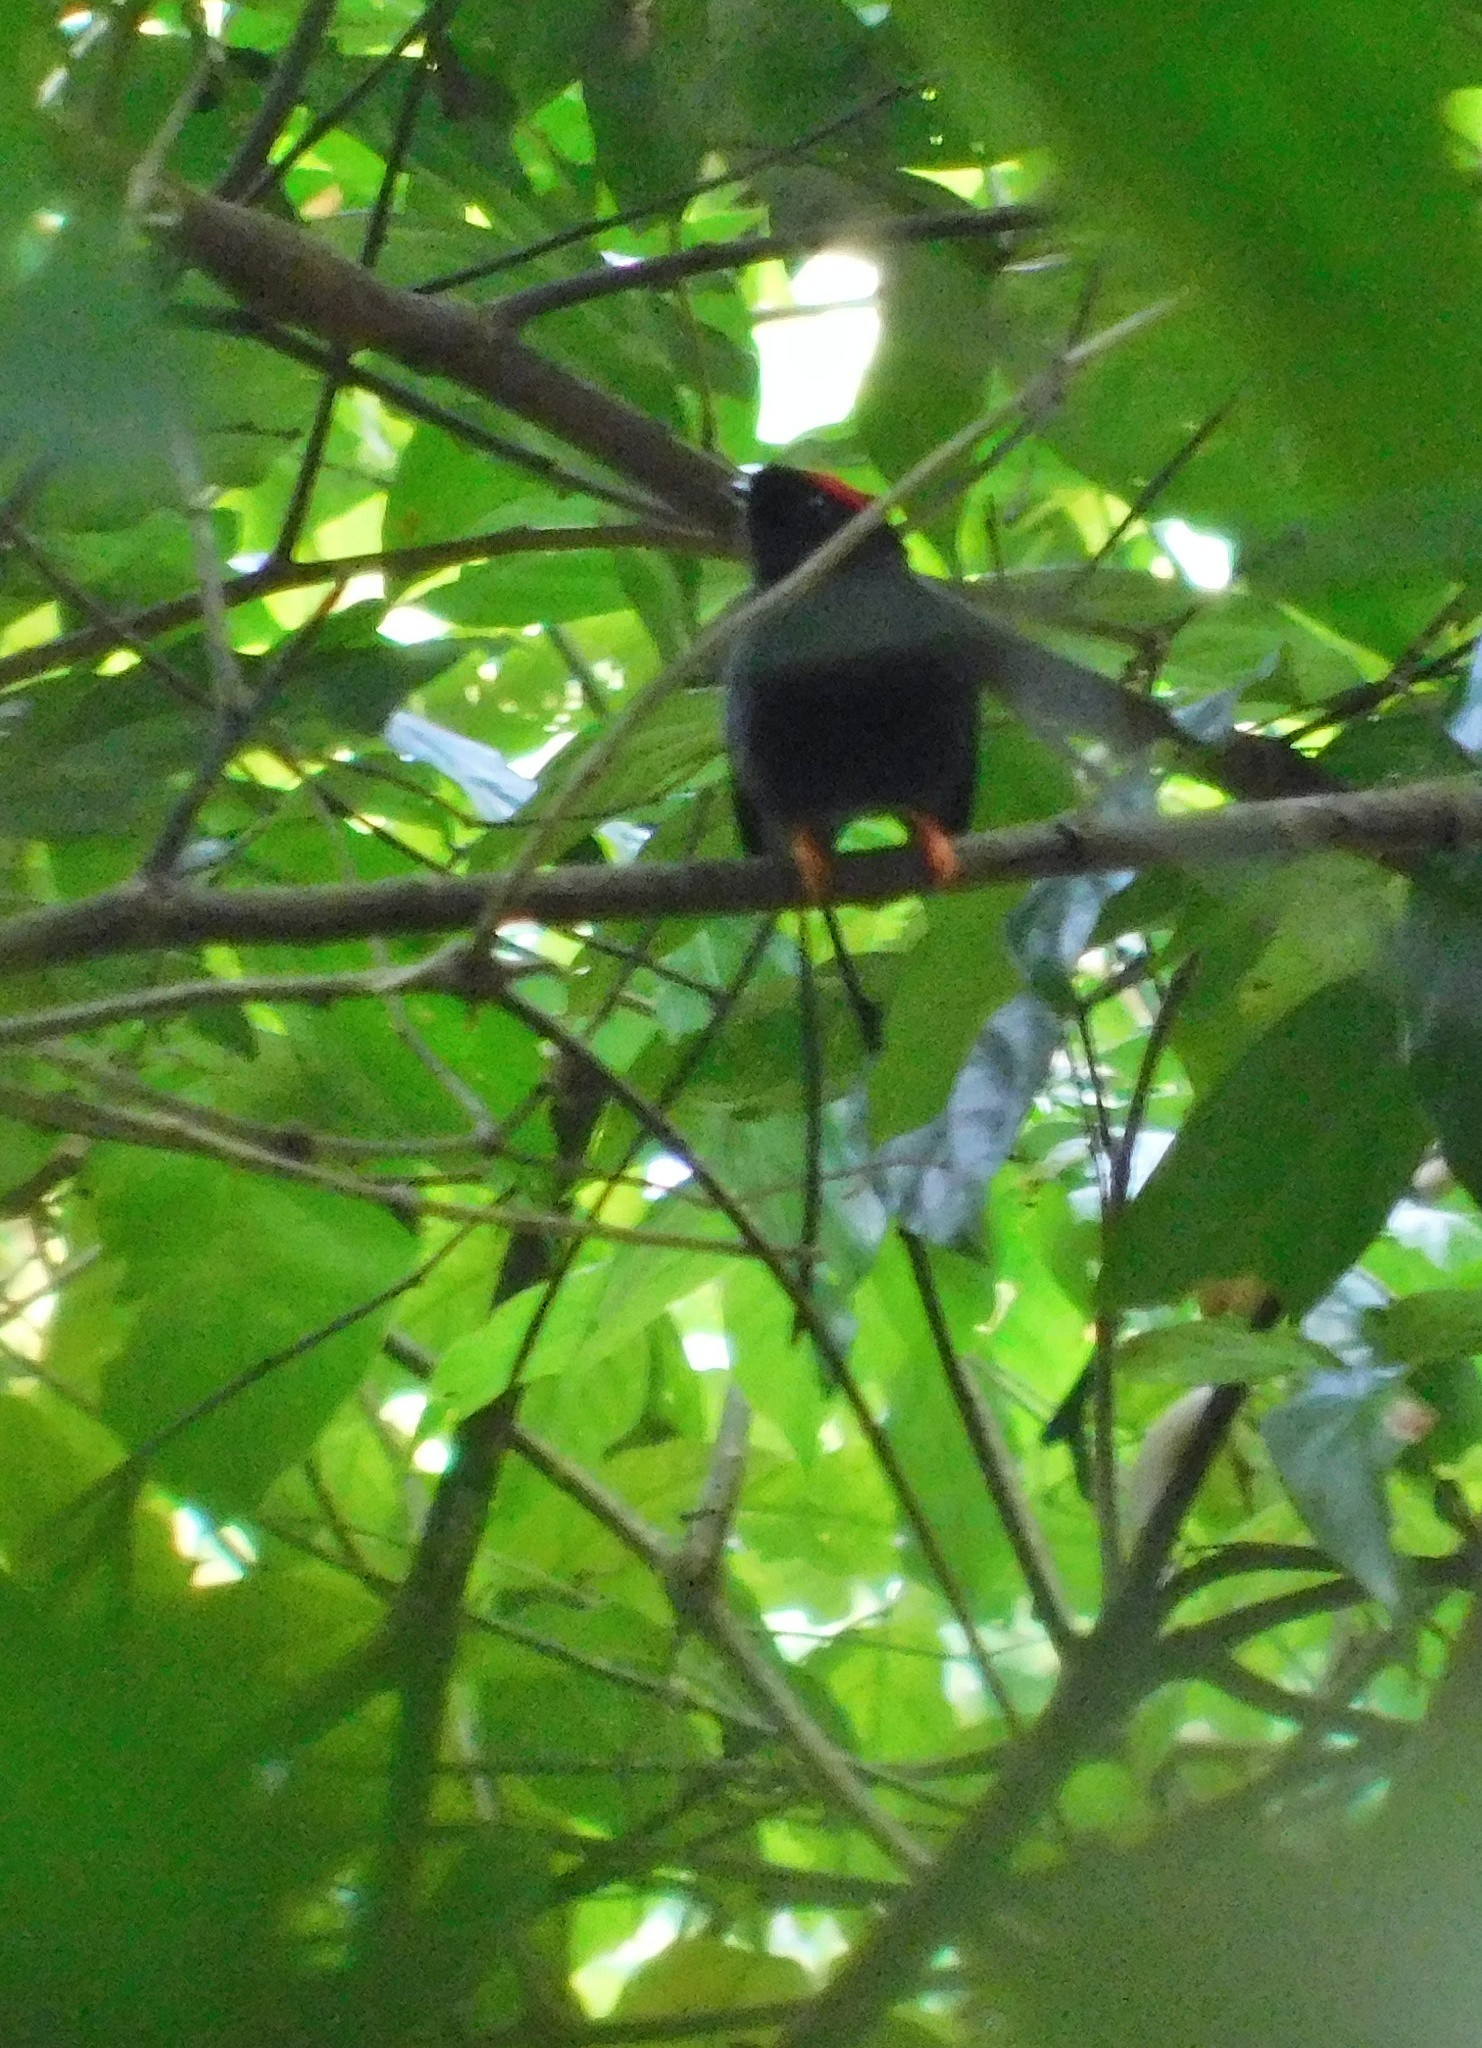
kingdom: Animalia
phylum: Chordata
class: Aves
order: Passeriformes
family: Pipridae
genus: Chiroxiphia
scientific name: Chiroxiphia linearis
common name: Long-tailed manakin
